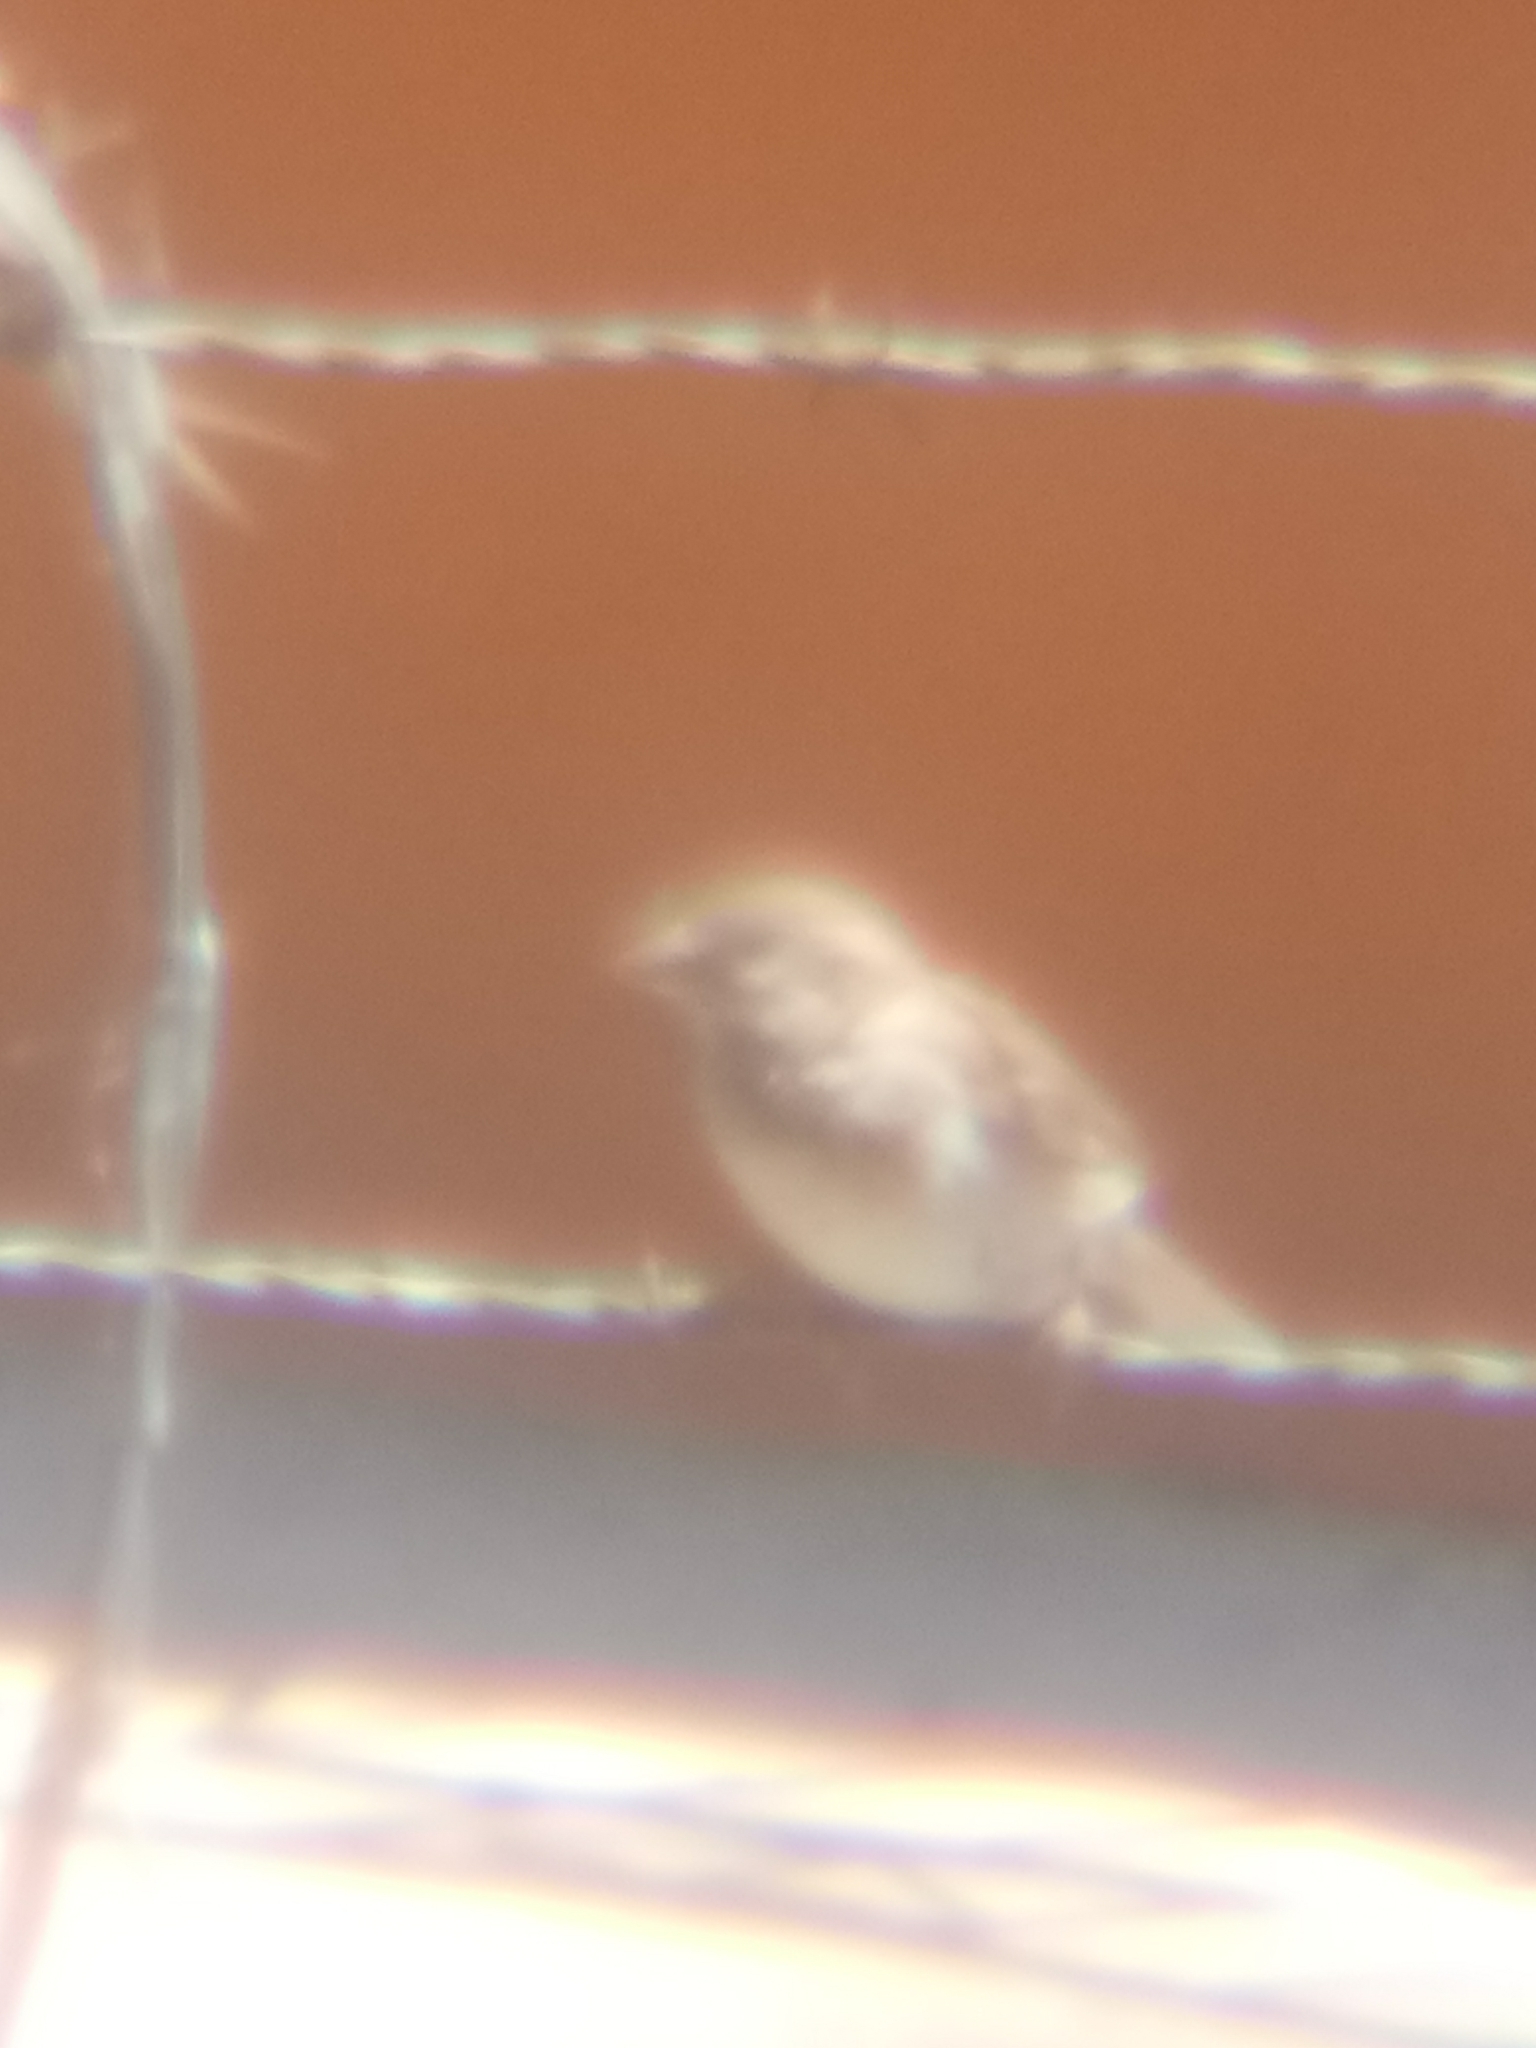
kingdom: Animalia
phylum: Chordata
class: Aves
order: Passeriformes
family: Passeridae
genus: Passer
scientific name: Passer domesticus
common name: House sparrow
